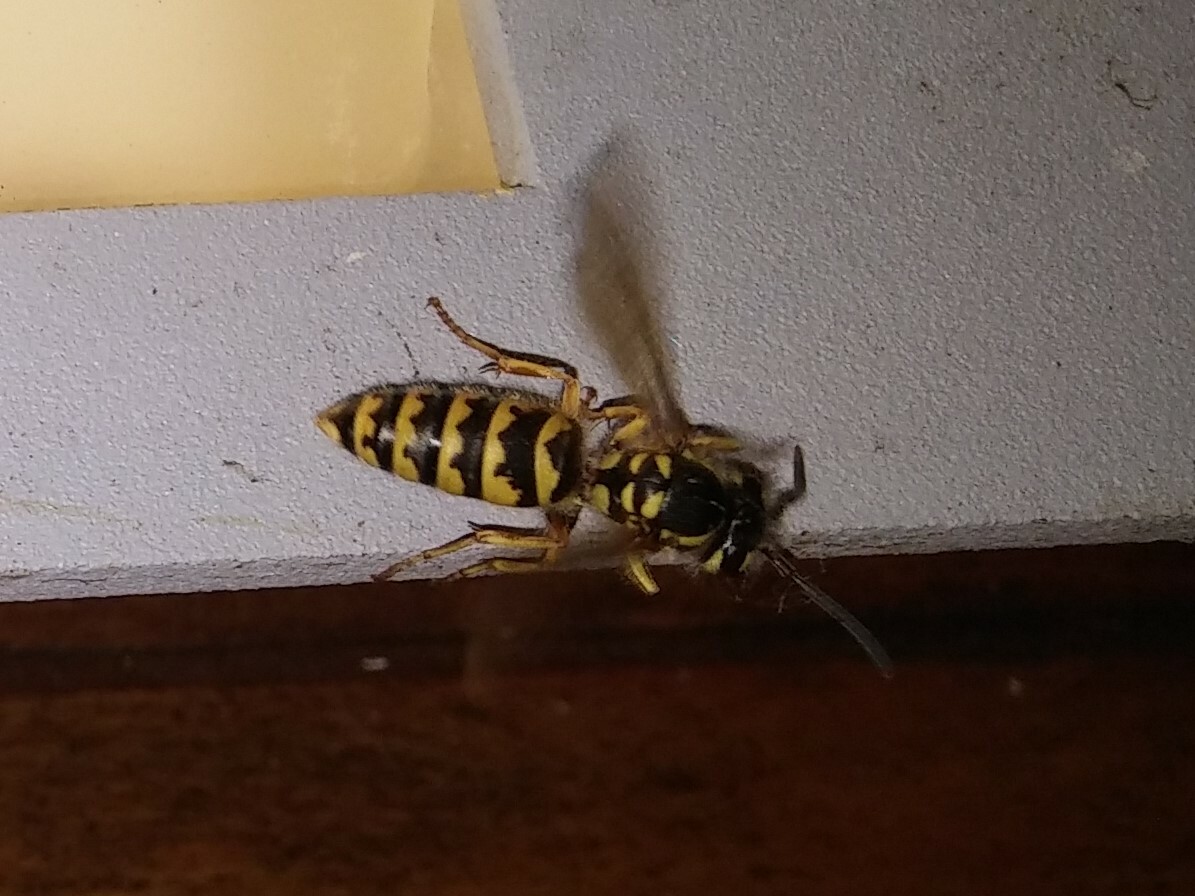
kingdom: Animalia
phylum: Arthropoda
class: Insecta
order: Hymenoptera
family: Vespidae
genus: Vespula
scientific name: Vespula flavopilosa
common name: Downy yellowjacket
